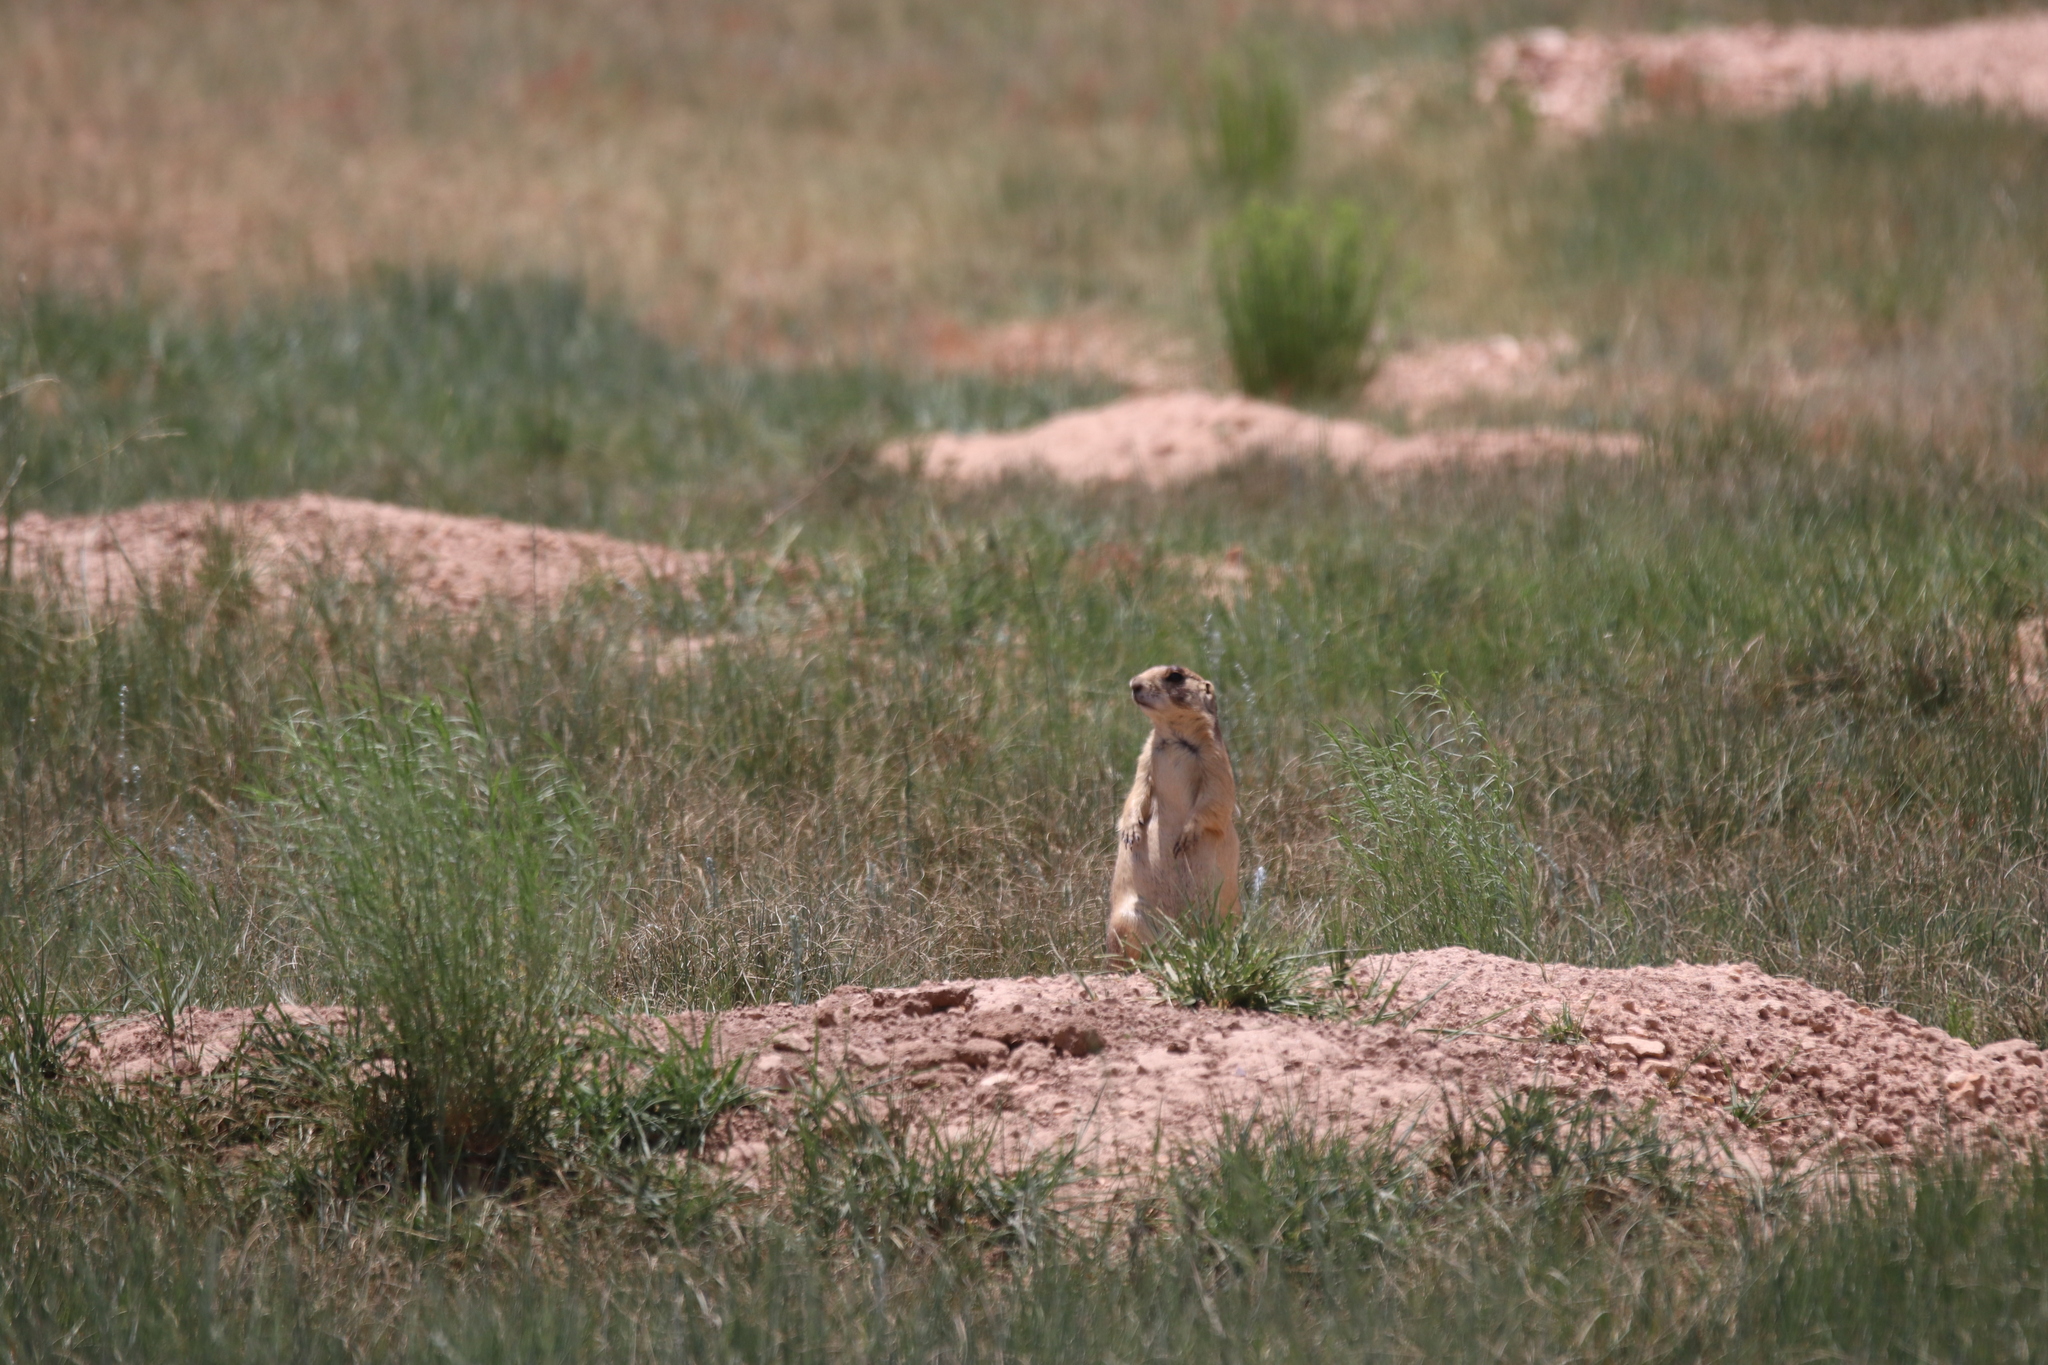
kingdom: Animalia
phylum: Chordata
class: Mammalia
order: Rodentia
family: Sciuridae
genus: Cynomys
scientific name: Cynomys parvidens
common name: Utah prairie dog
